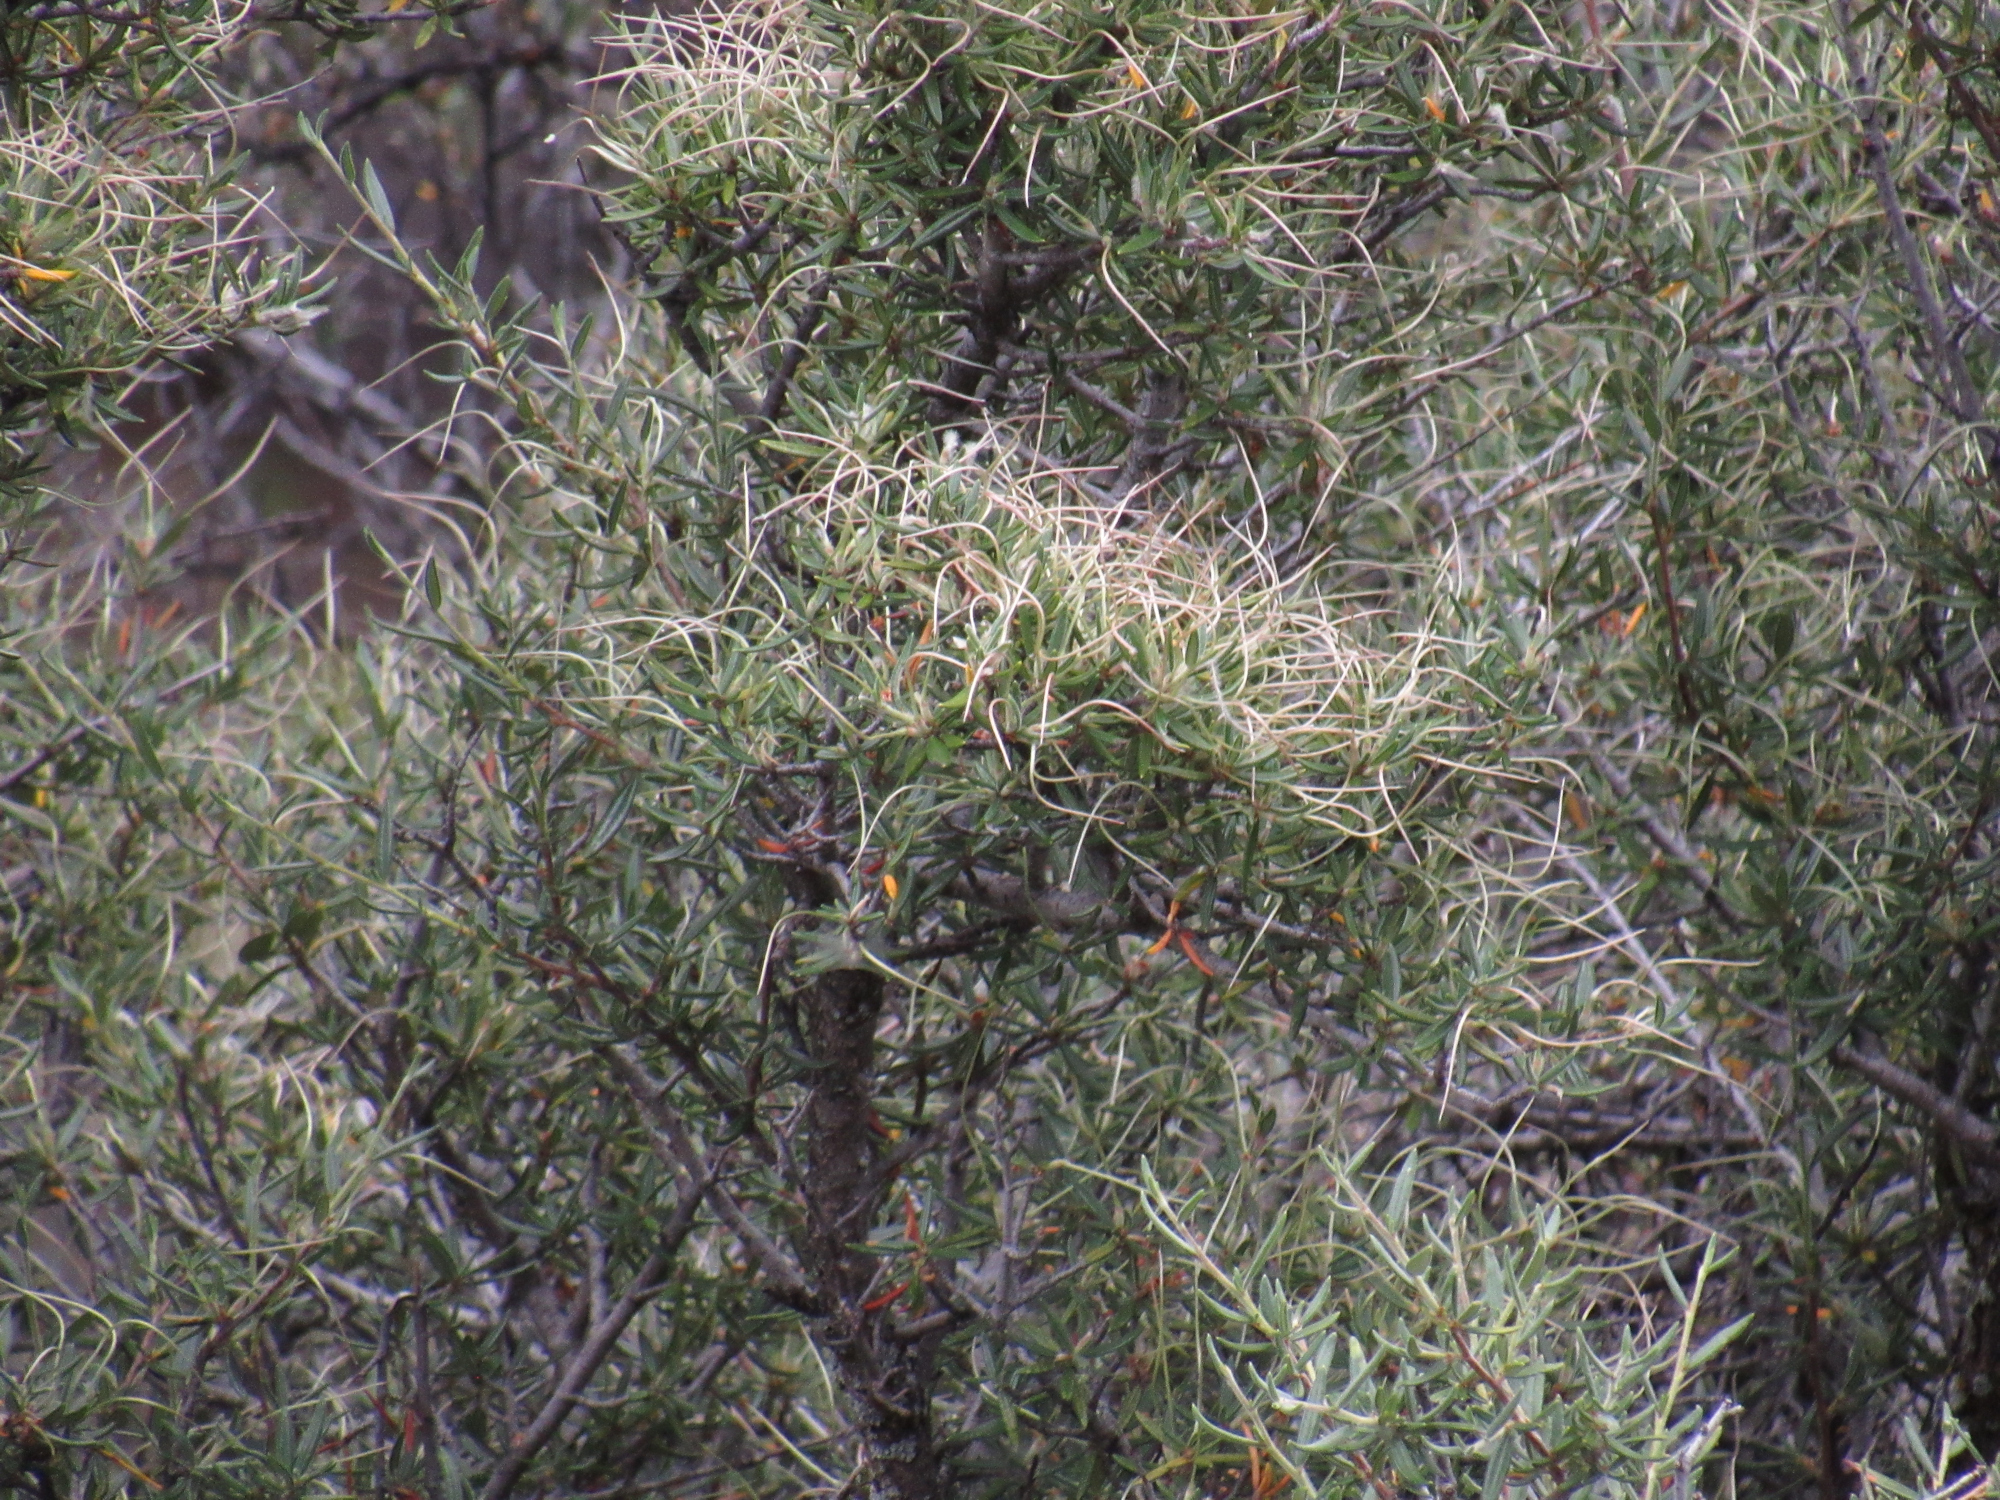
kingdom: Plantae
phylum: Tracheophyta
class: Magnoliopsida
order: Rosales
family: Rosaceae
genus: Cercocarpus
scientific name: Cercocarpus ledifolius
